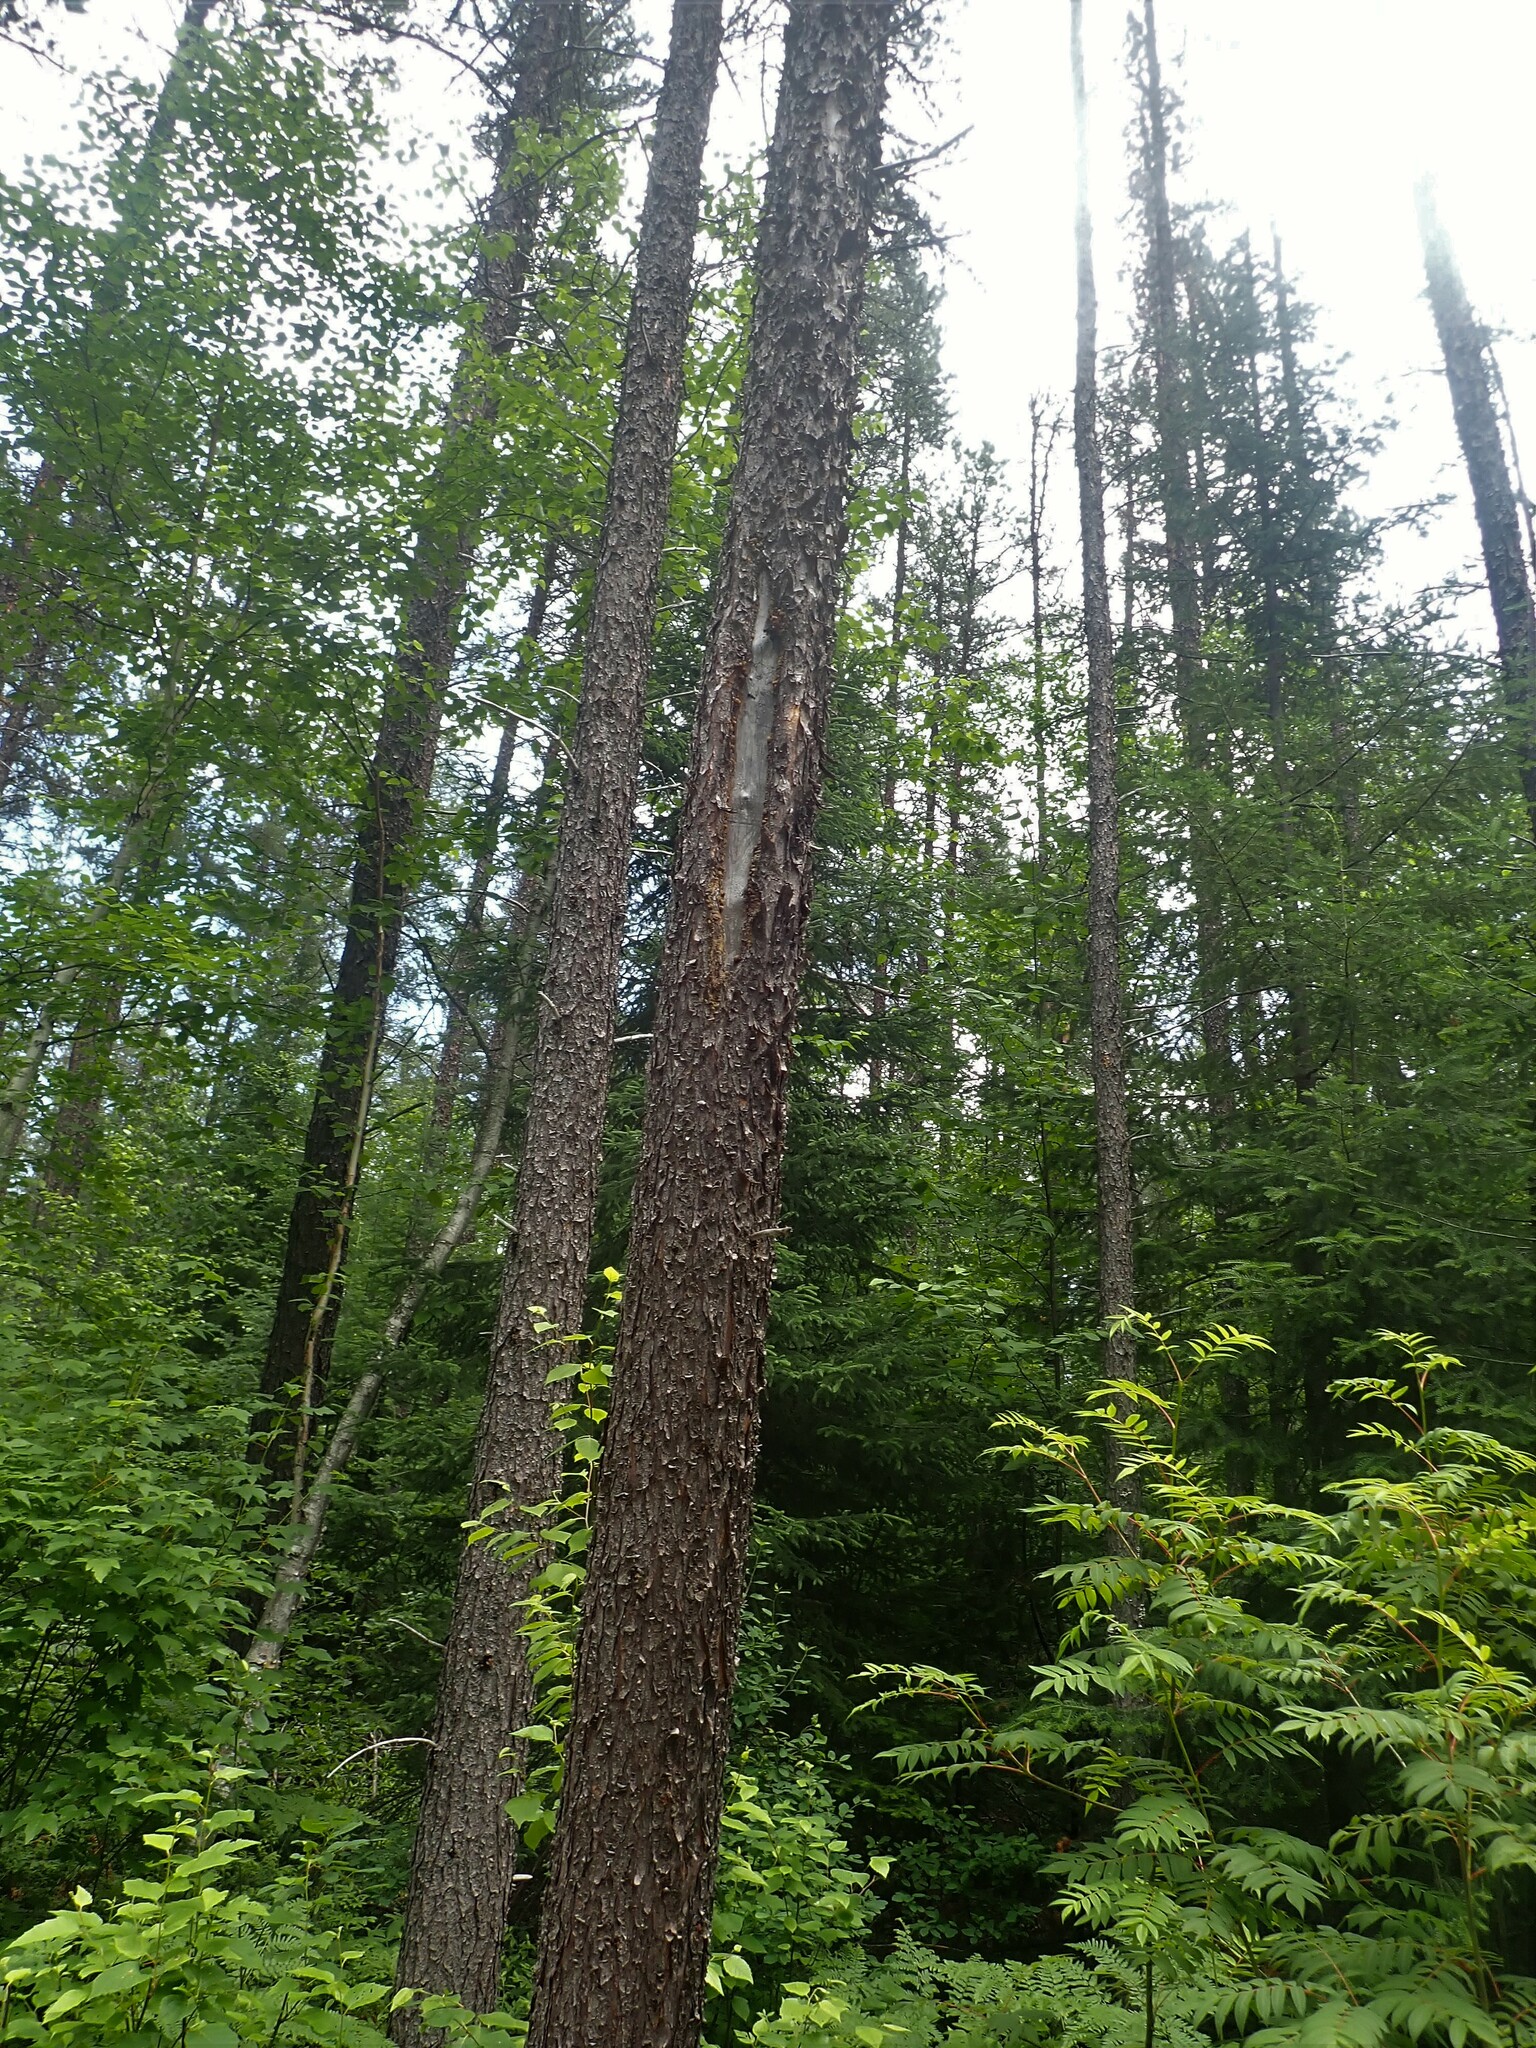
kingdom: Plantae
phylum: Tracheophyta
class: Pinopsida
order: Pinales
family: Pinaceae
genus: Pinus
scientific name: Pinus banksiana
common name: Jack pine
